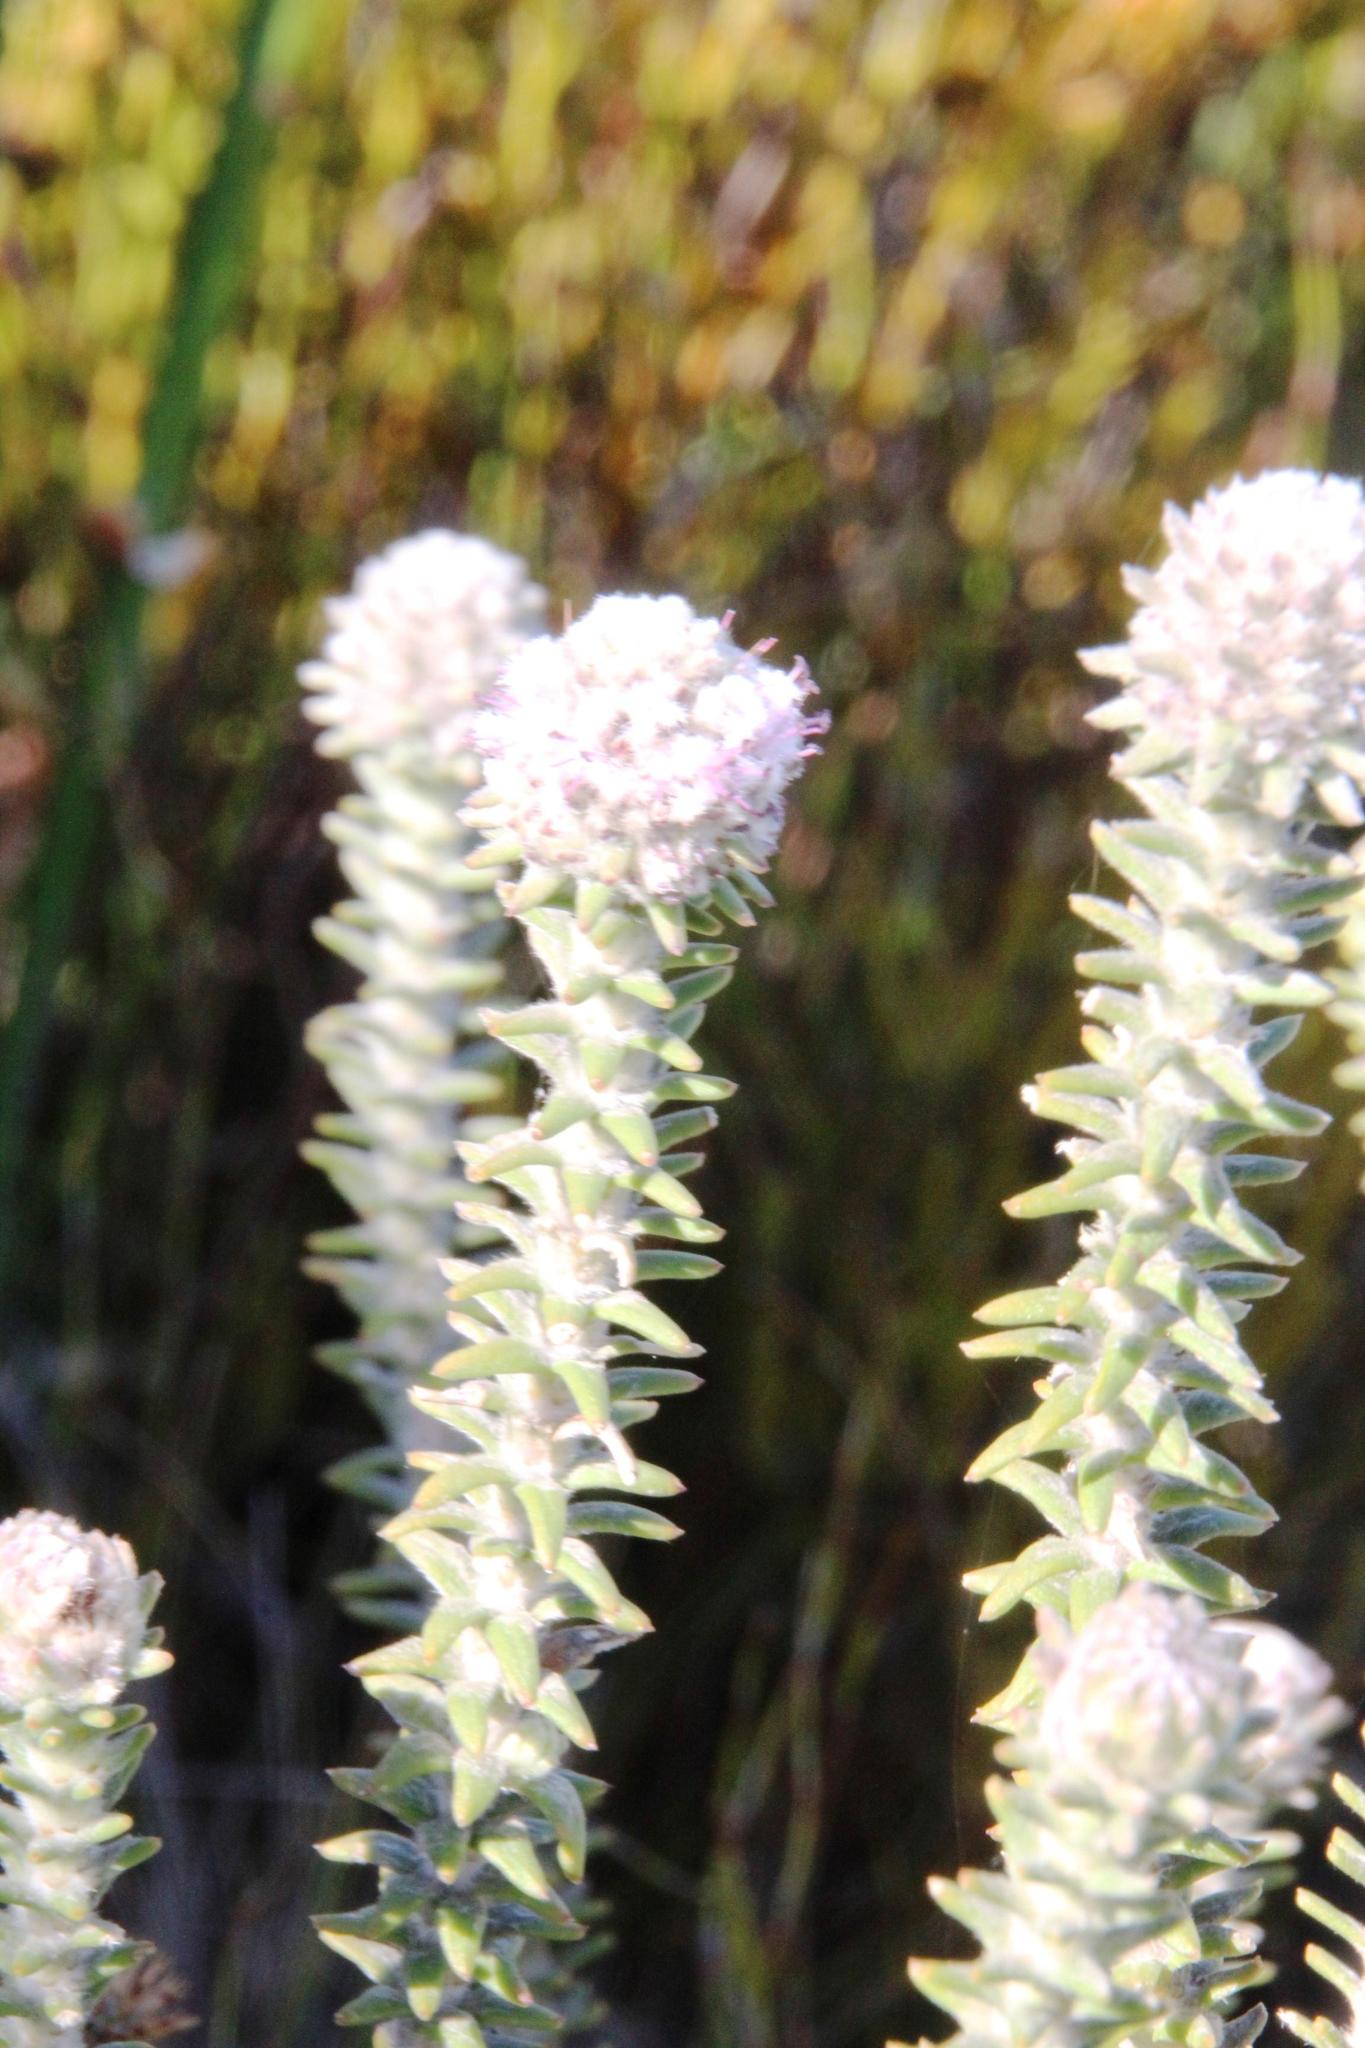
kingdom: Plantae
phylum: Tracheophyta
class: Magnoliopsida
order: Lamiales
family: Stilbaceae
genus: Kogelbergia
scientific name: Kogelbergia verticillata
